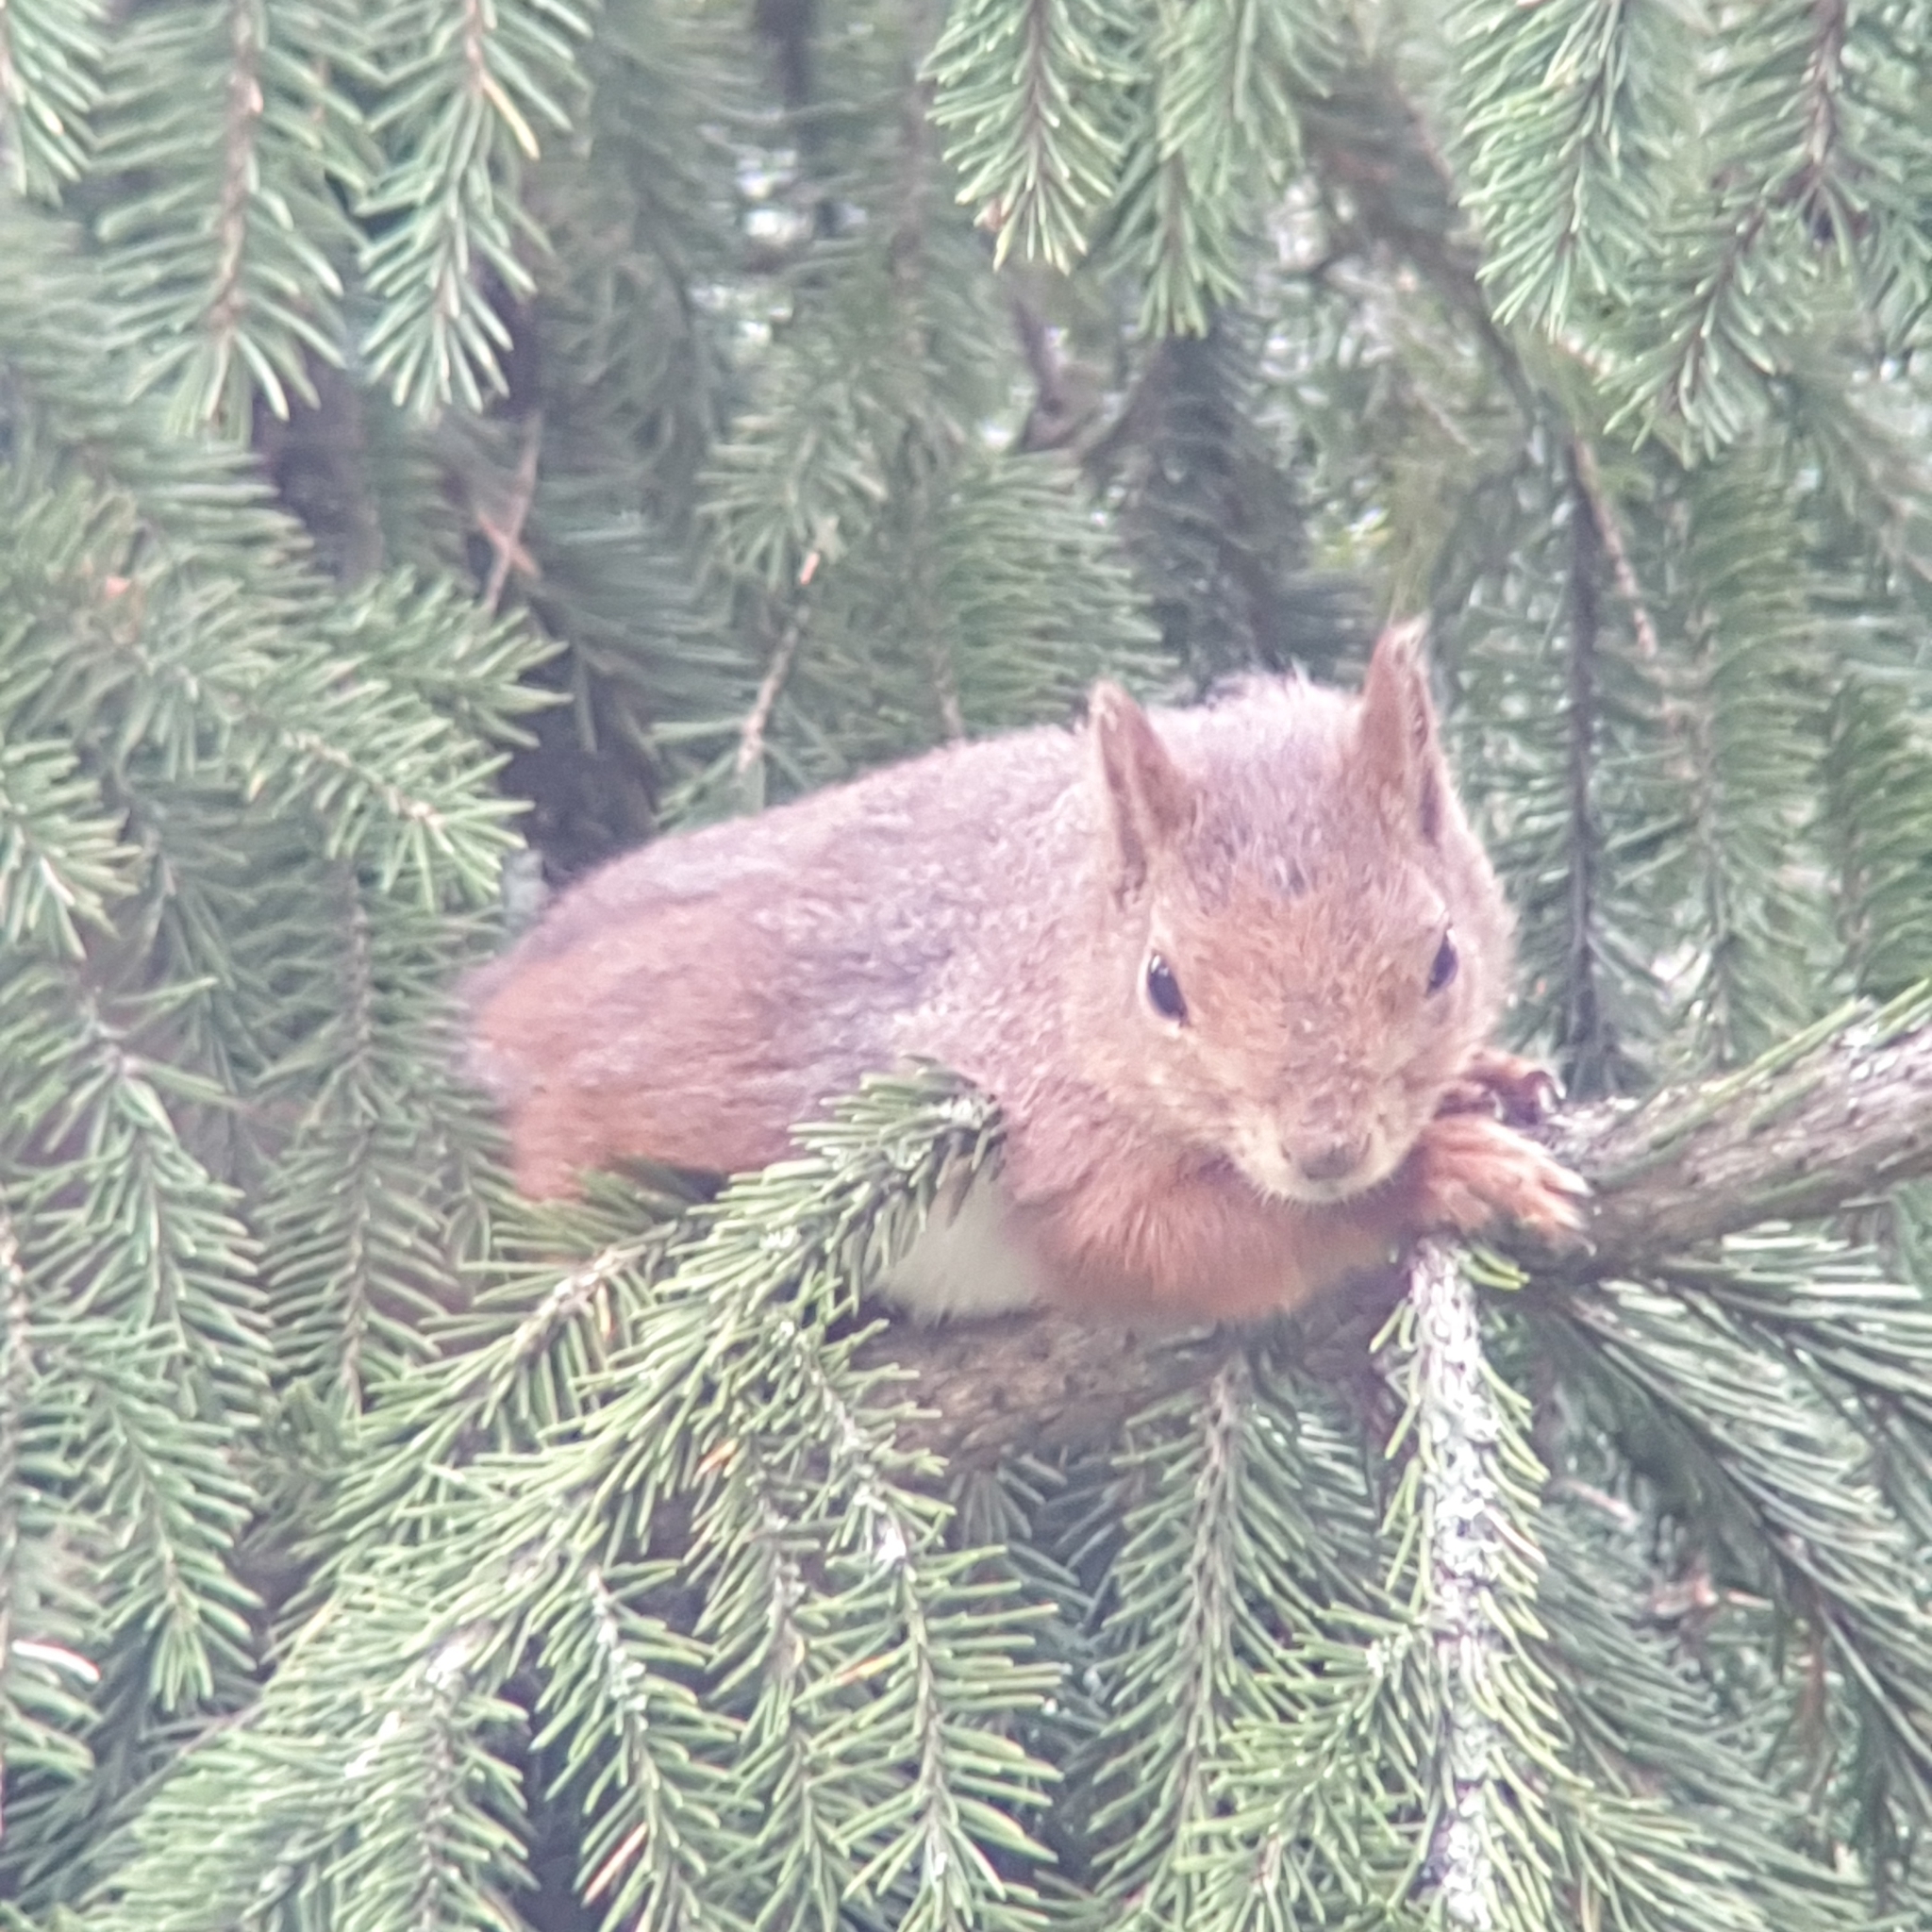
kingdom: Animalia
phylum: Chordata
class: Mammalia
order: Rodentia
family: Sciuridae
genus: Sciurus
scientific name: Sciurus vulgaris
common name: Eurasian red squirrel
